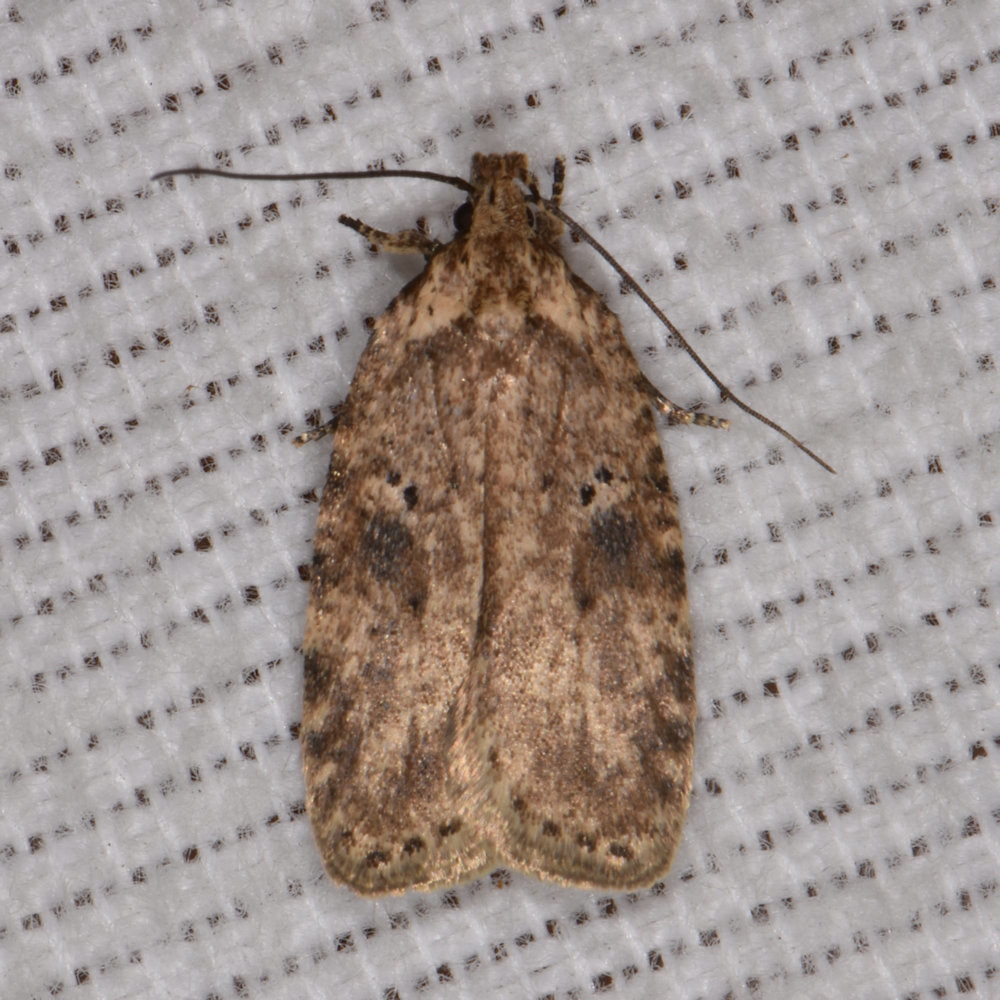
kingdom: Animalia
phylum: Arthropoda
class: Insecta
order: Lepidoptera
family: Depressariidae
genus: Agonopterix
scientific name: Agonopterix canadensis
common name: Canadian agonopterix moth
